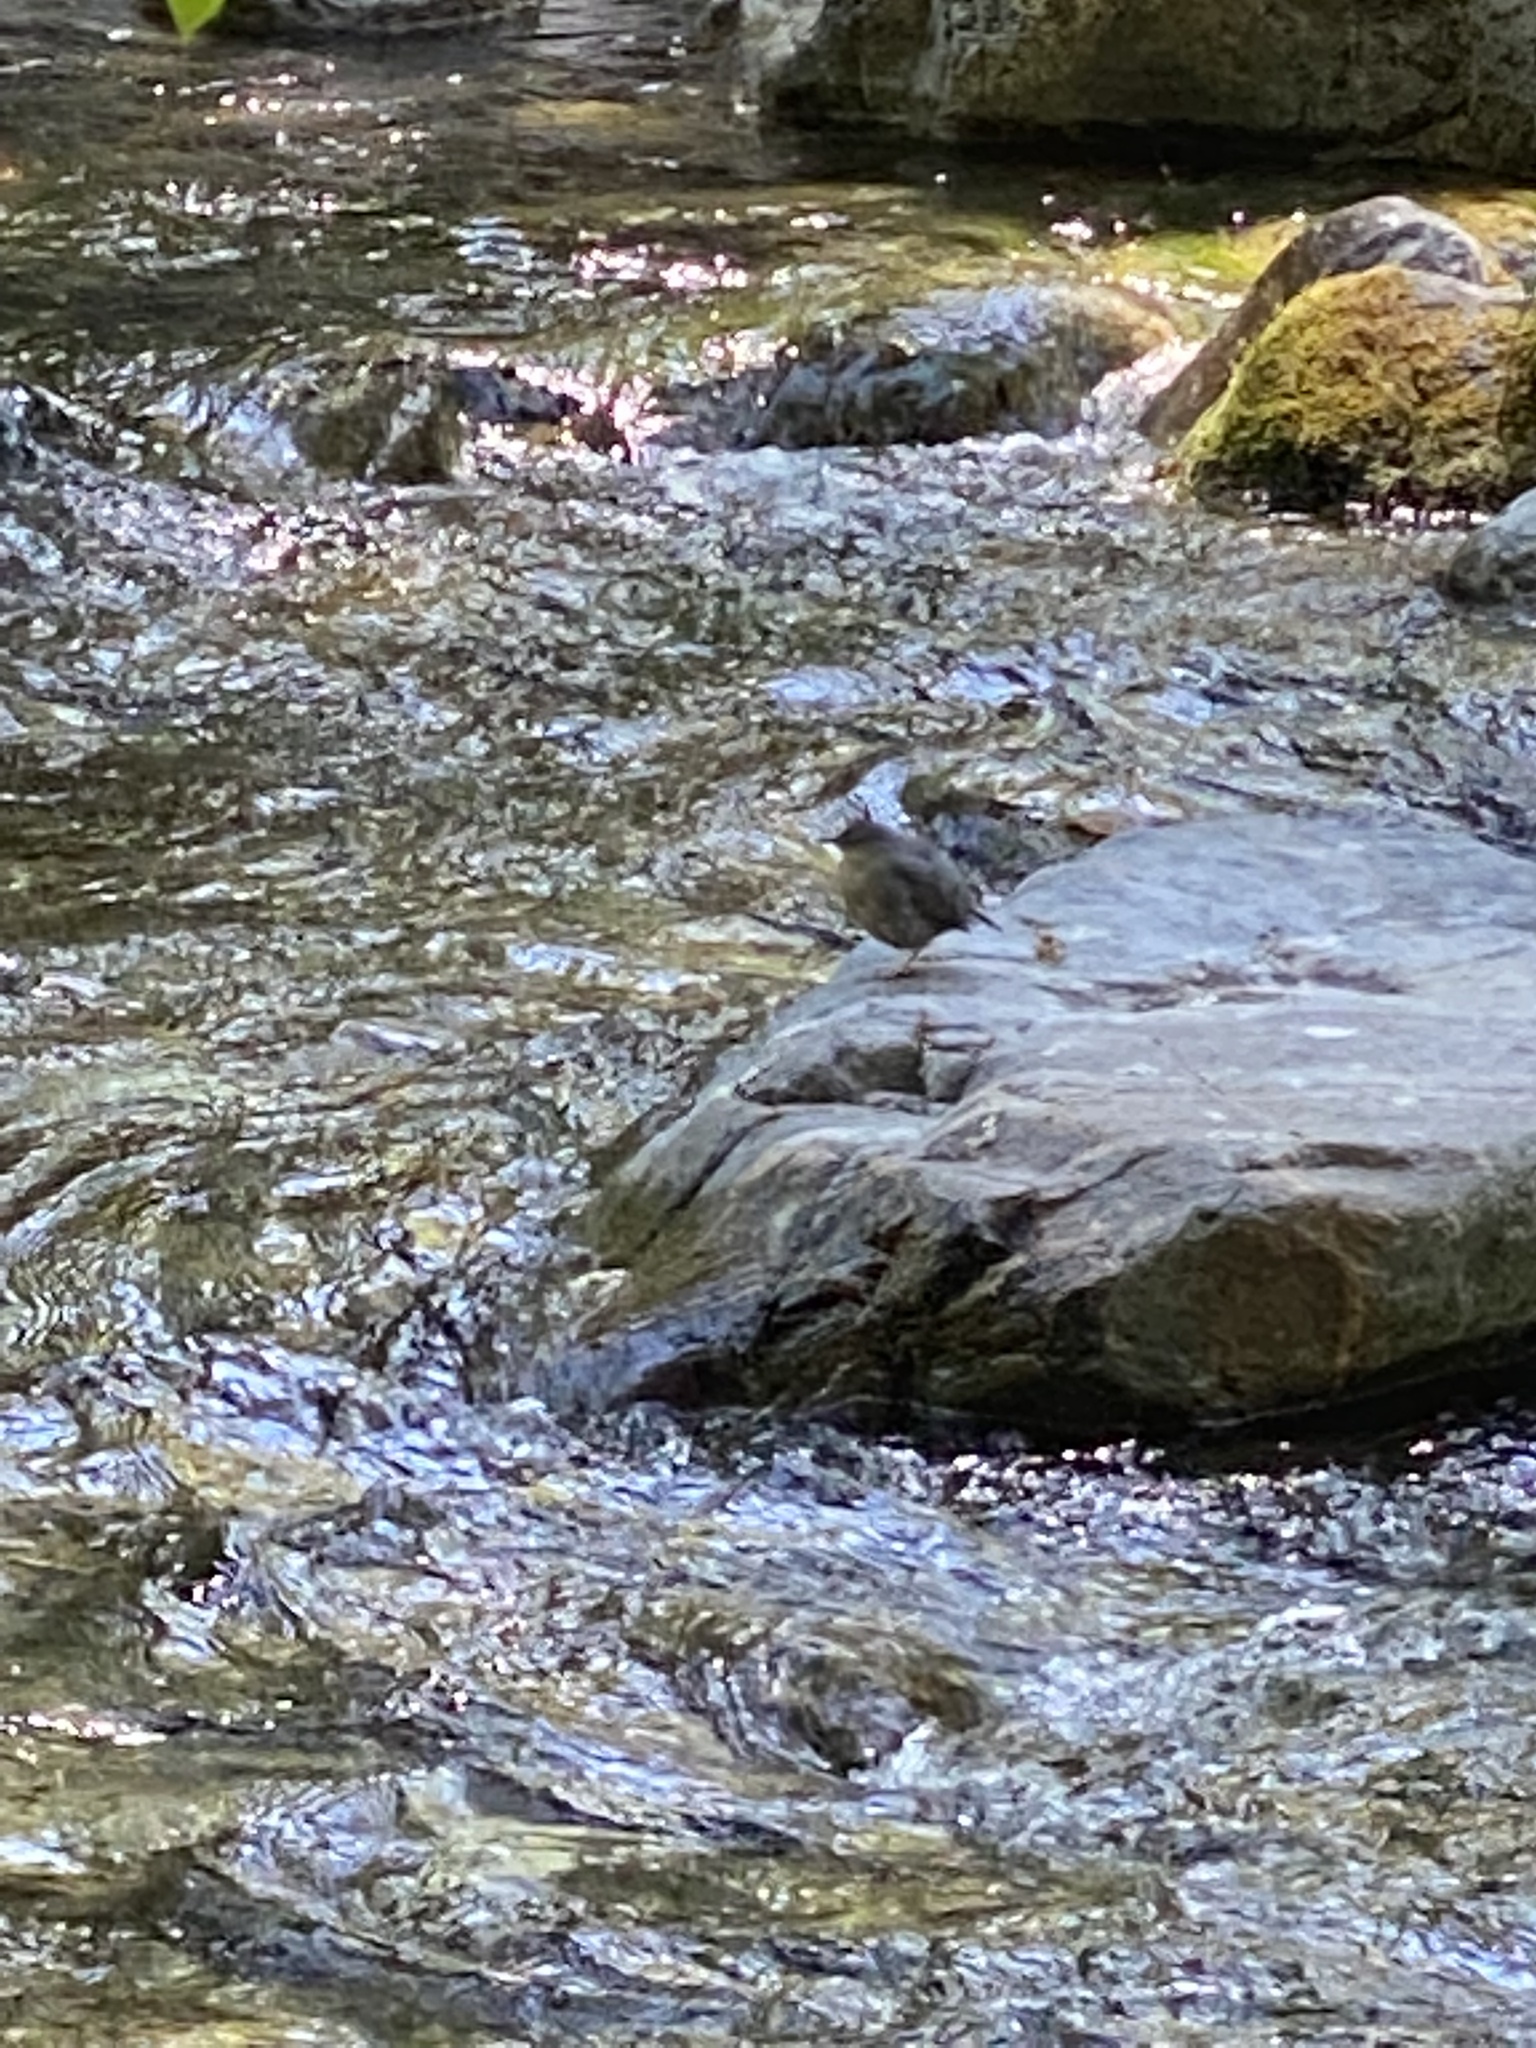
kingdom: Animalia
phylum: Chordata
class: Aves
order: Passeriformes
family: Cinclidae
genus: Cinclus
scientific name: Cinclus mexicanus
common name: American dipper
